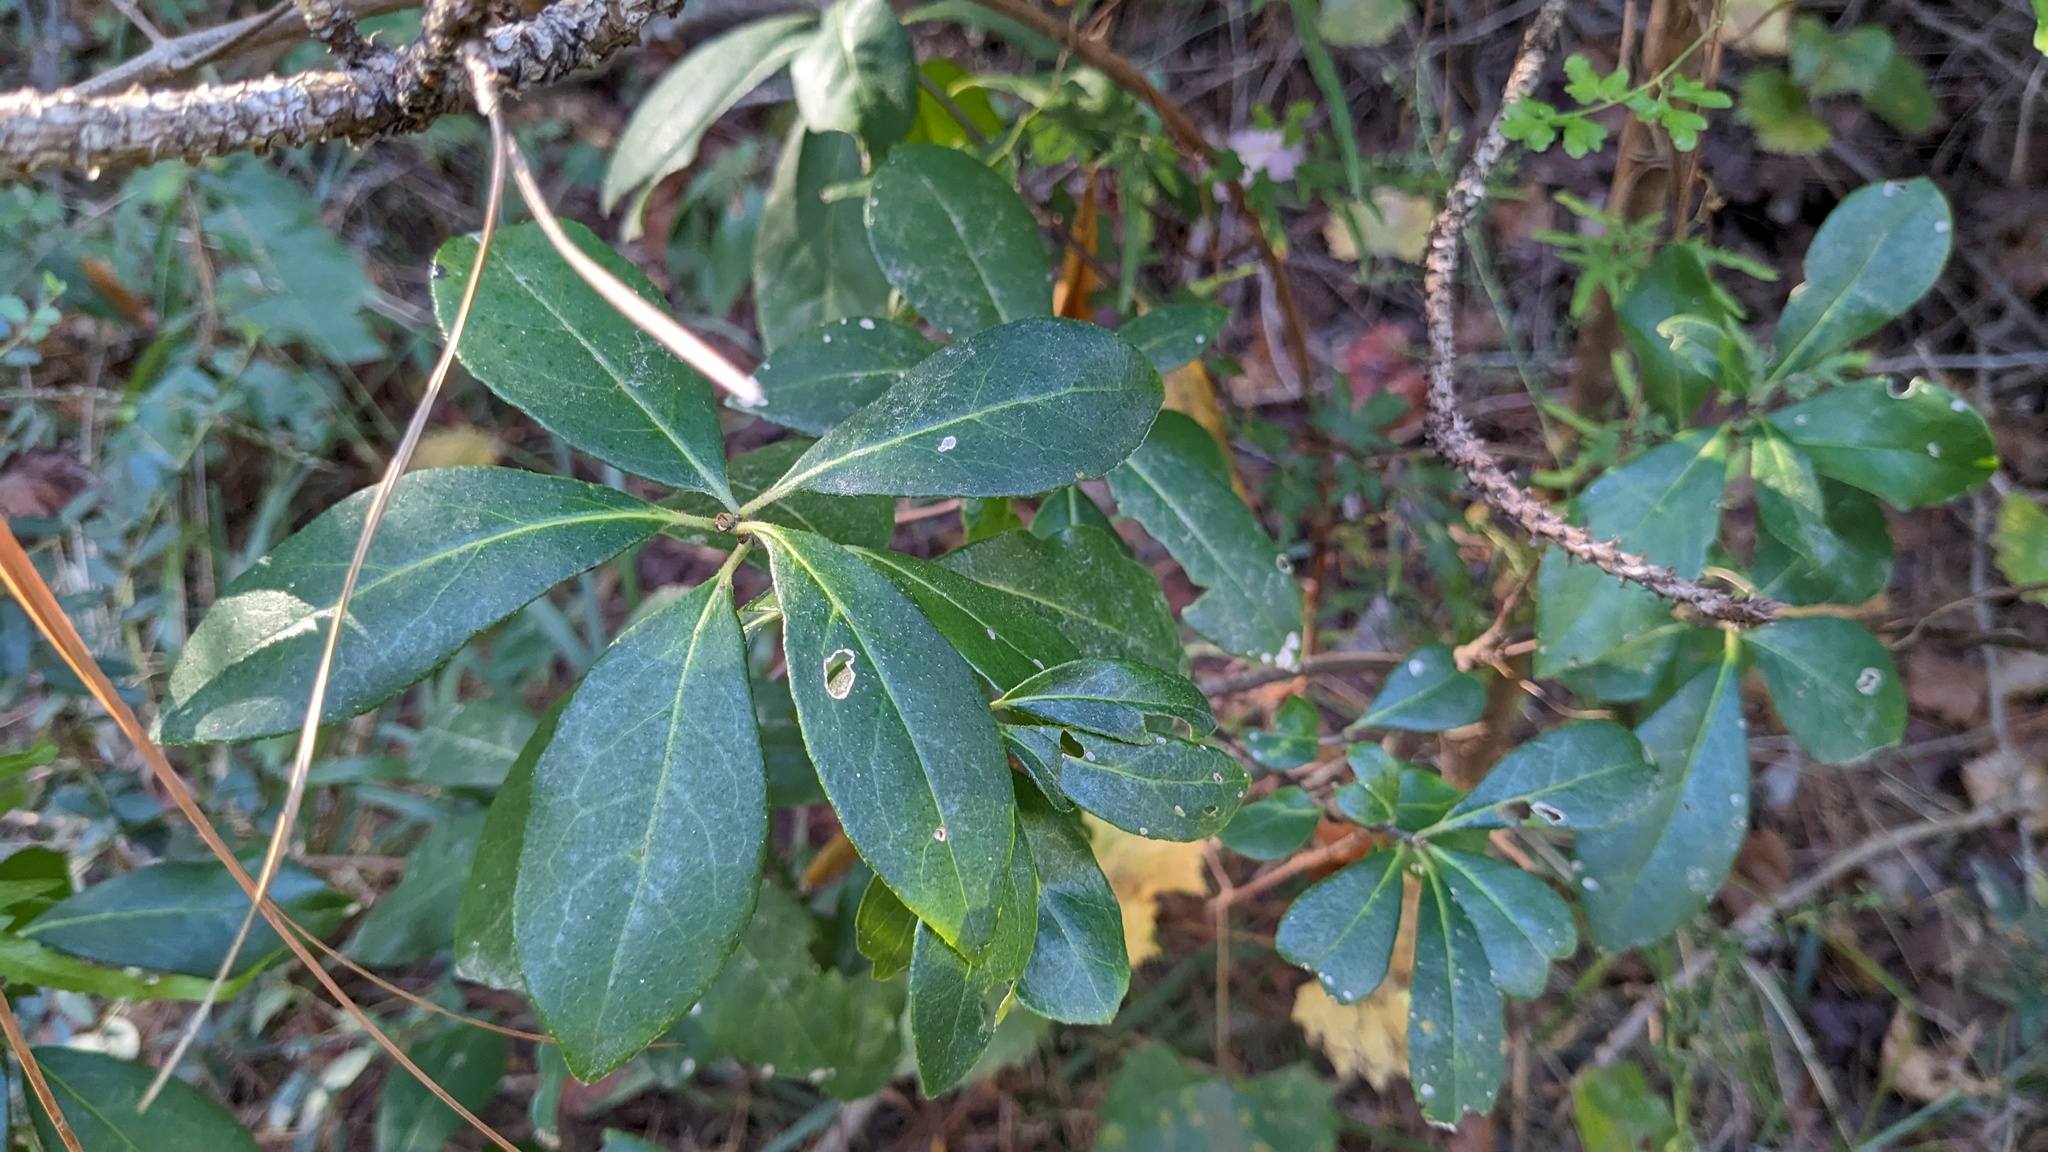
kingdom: Plantae
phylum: Tracheophyta
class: Magnoliopsida
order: Ericales
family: Symplocaceae
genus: Symplocos
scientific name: Symplocos tinctoria
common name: Horse-sugar
